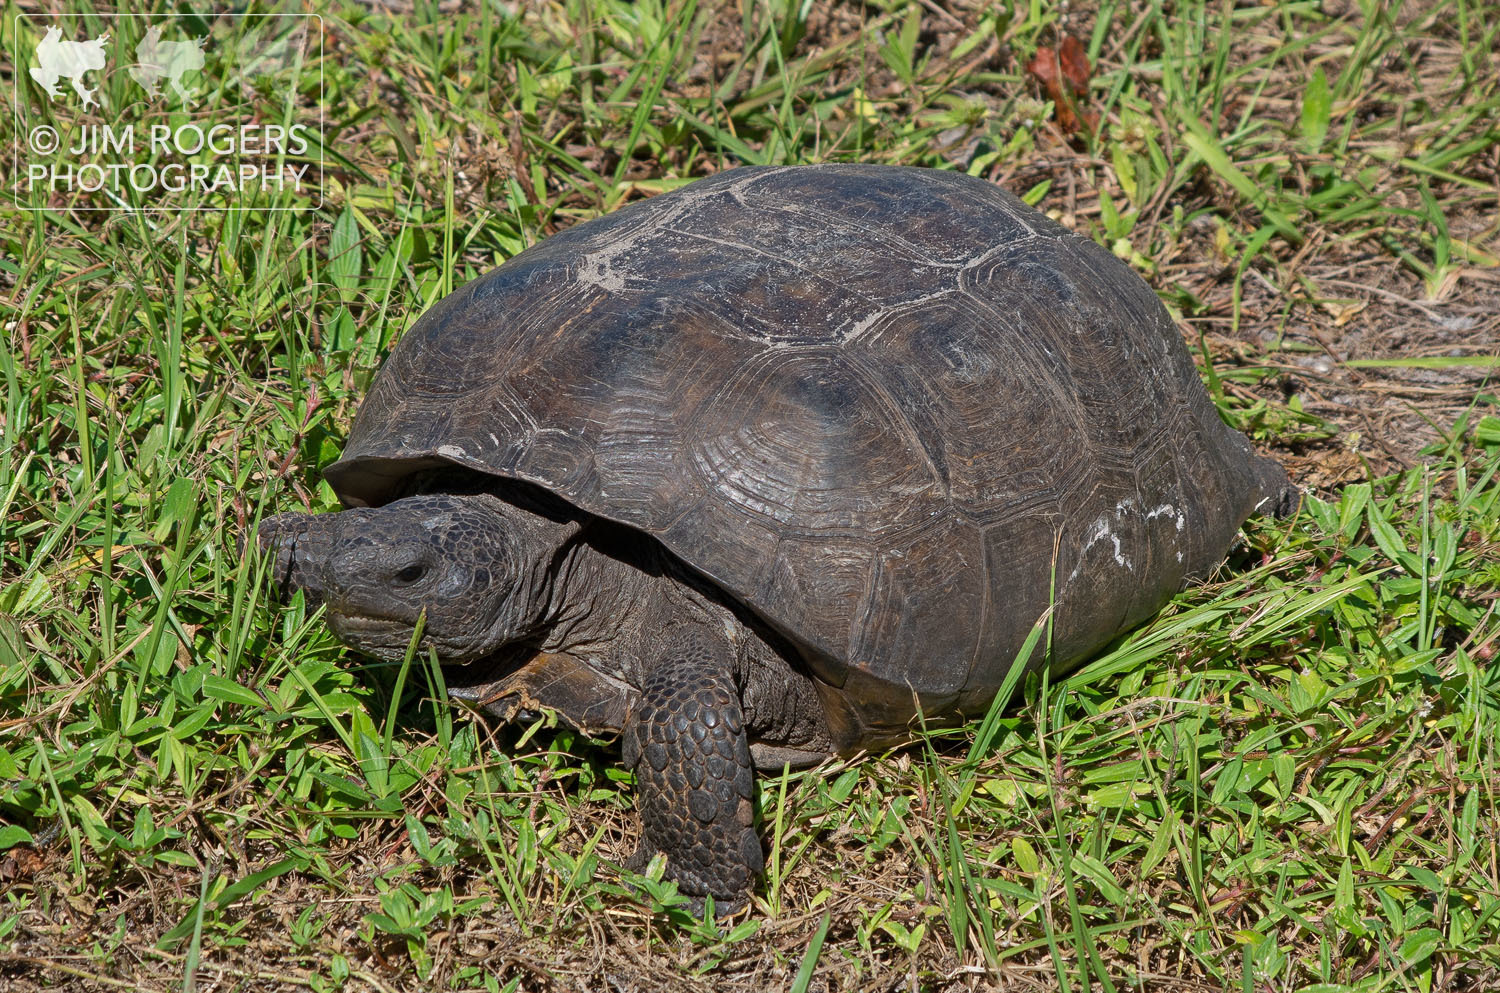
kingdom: Animalia
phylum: Chordata
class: Testudines
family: Testudinidae
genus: Gopherus
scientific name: Gopherus polyphemus
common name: Florida gopher tortoise
